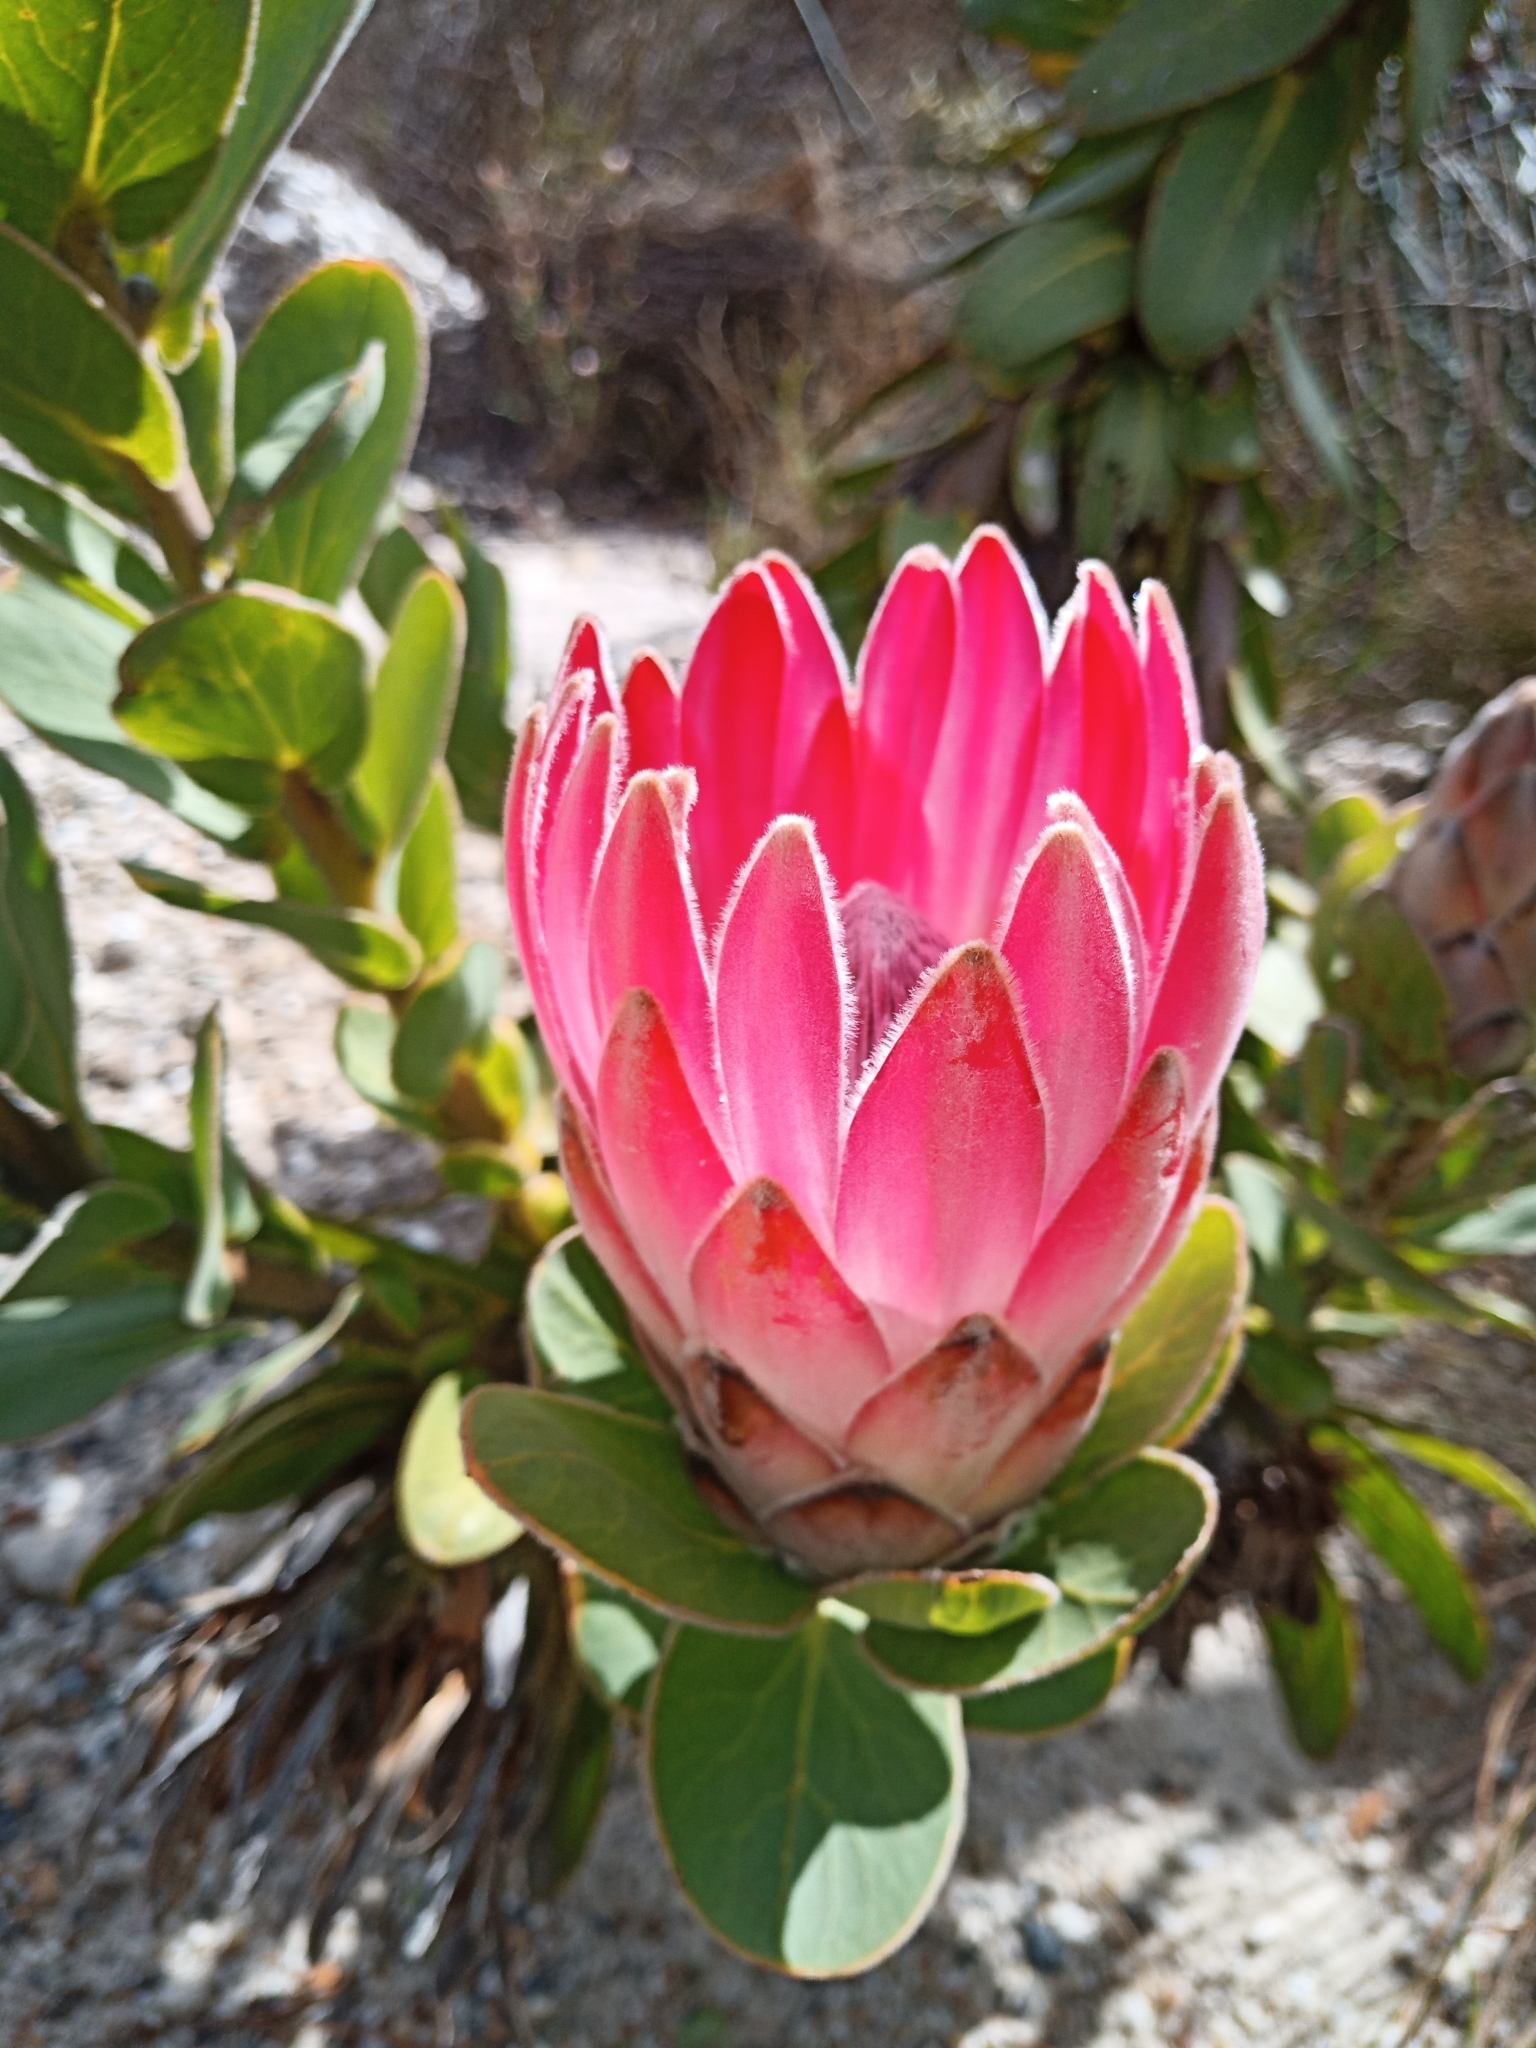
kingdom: Plantae
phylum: Tracheophyta
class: Magnoliopsida
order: Proteales
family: Proteaceae
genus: Protea
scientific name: Protea compacta
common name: Bot river protea
